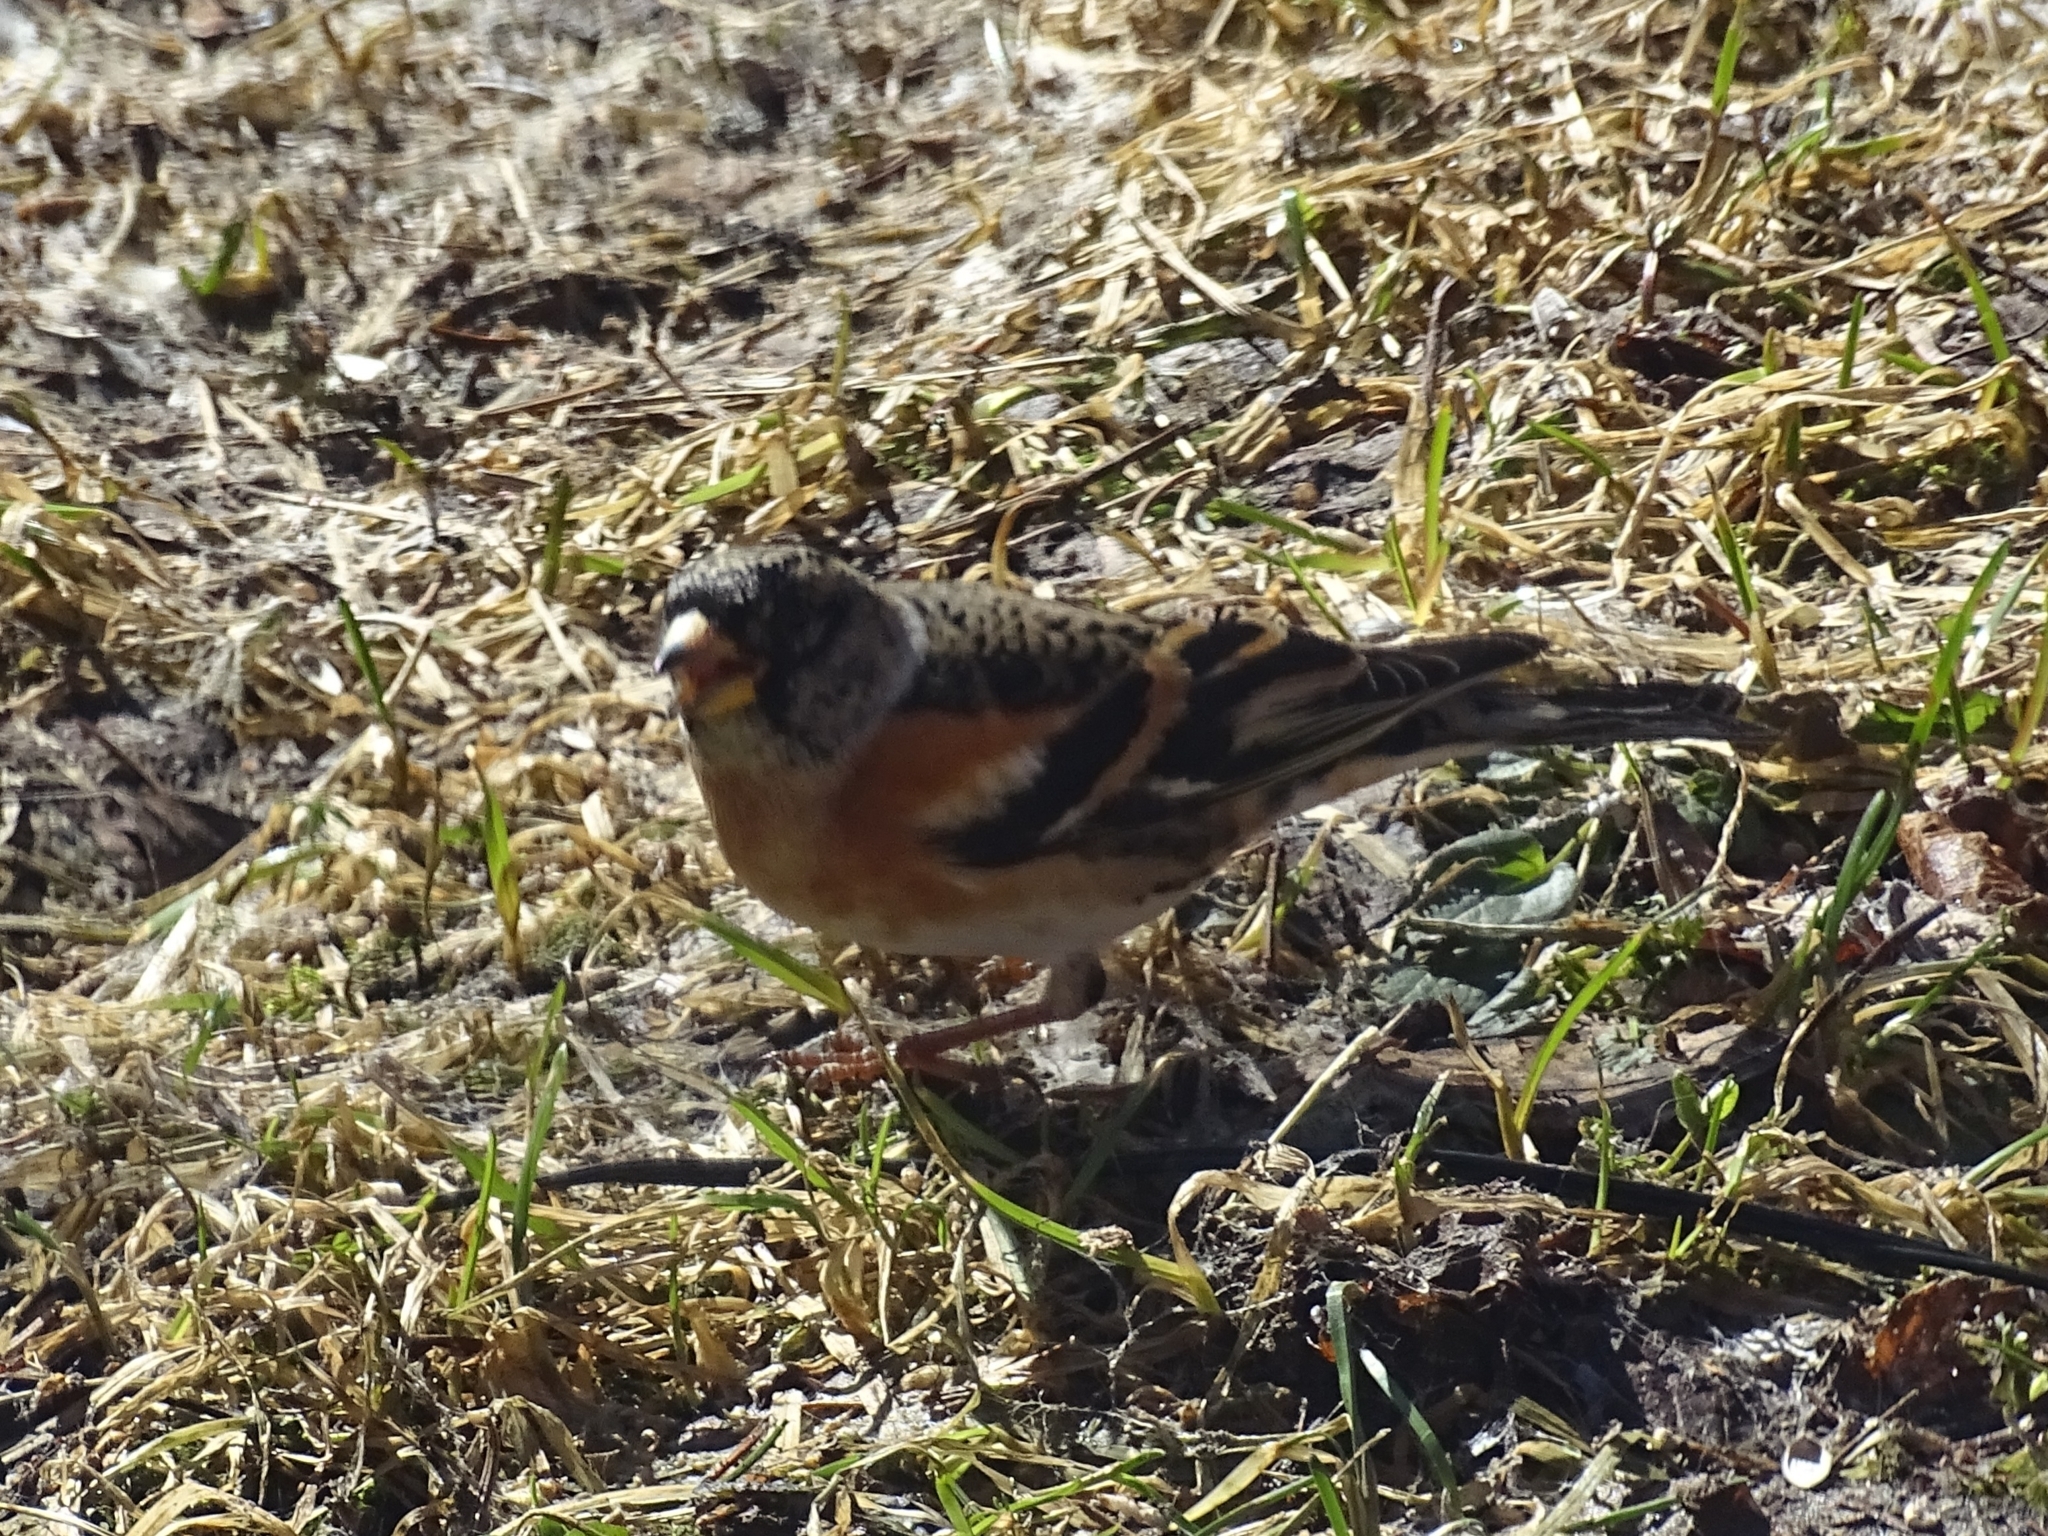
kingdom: Animalia
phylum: Chordata
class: Aves
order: Passeriformes
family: Fringillidae
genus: Fringilla
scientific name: Fringilla montifringilla
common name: Brambling
